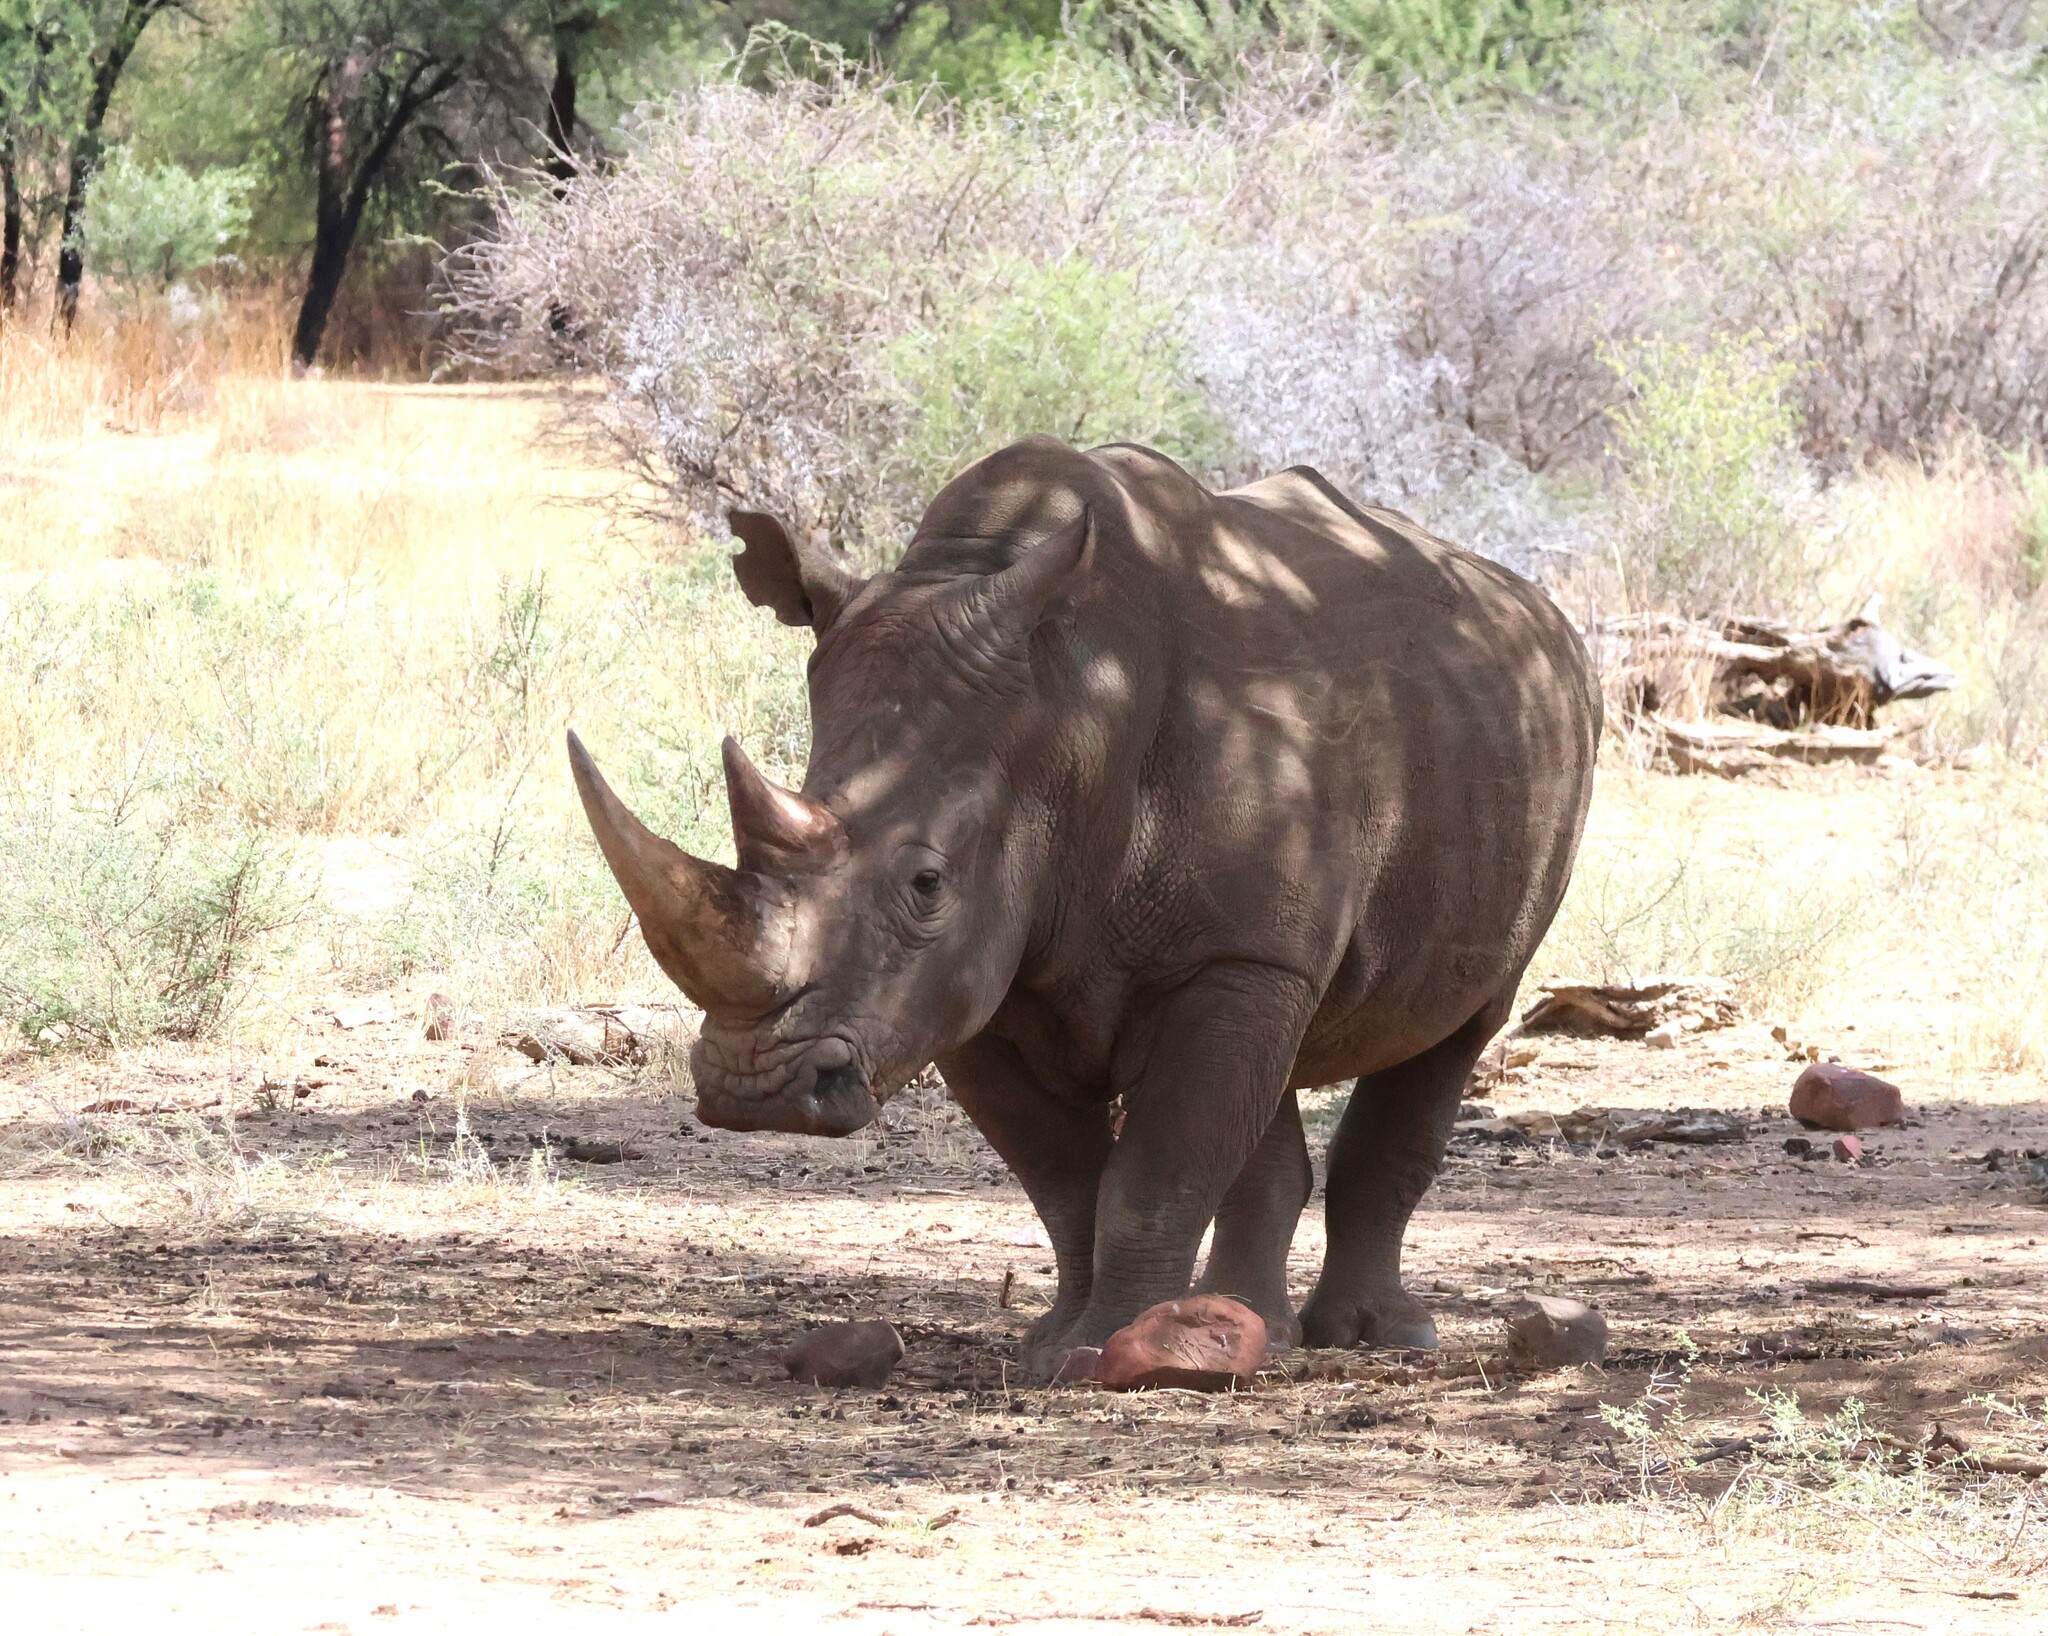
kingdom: Animalia
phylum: Chordata
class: Mammalia
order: Perissodactyla
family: Rhinocerotidae
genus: Ceratotherium
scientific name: Ceratotherium simum
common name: White rhinoceros
